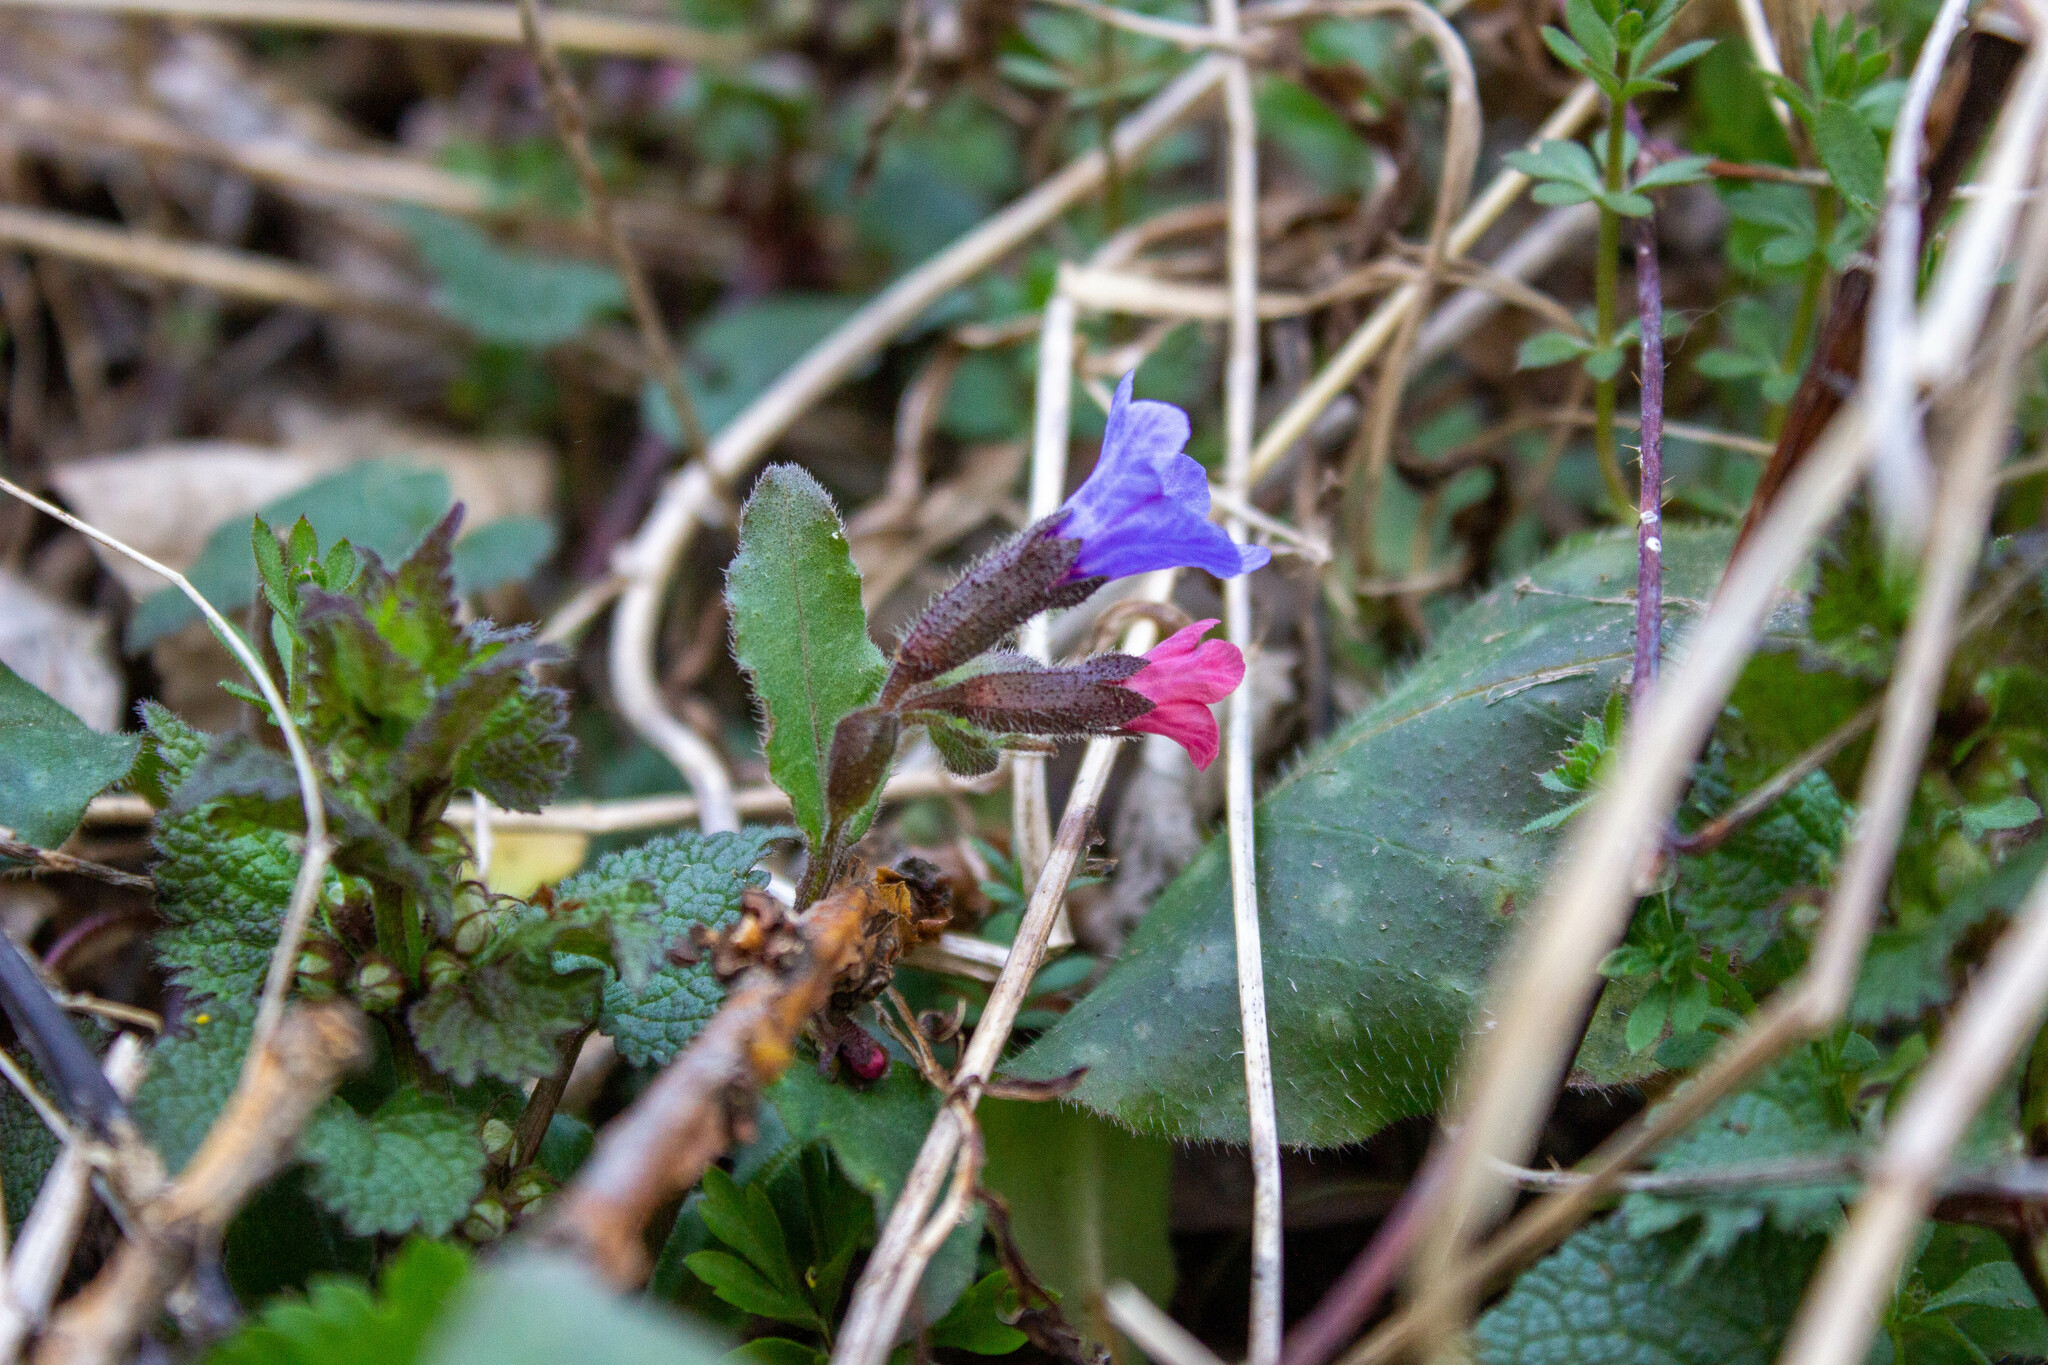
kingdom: Plantae
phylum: Tracheophyta
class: Magnoliopsida
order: Boraginales
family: Boraginaceae
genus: Pulmonaria
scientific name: Pulmonaria officinalis
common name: Lungwort
